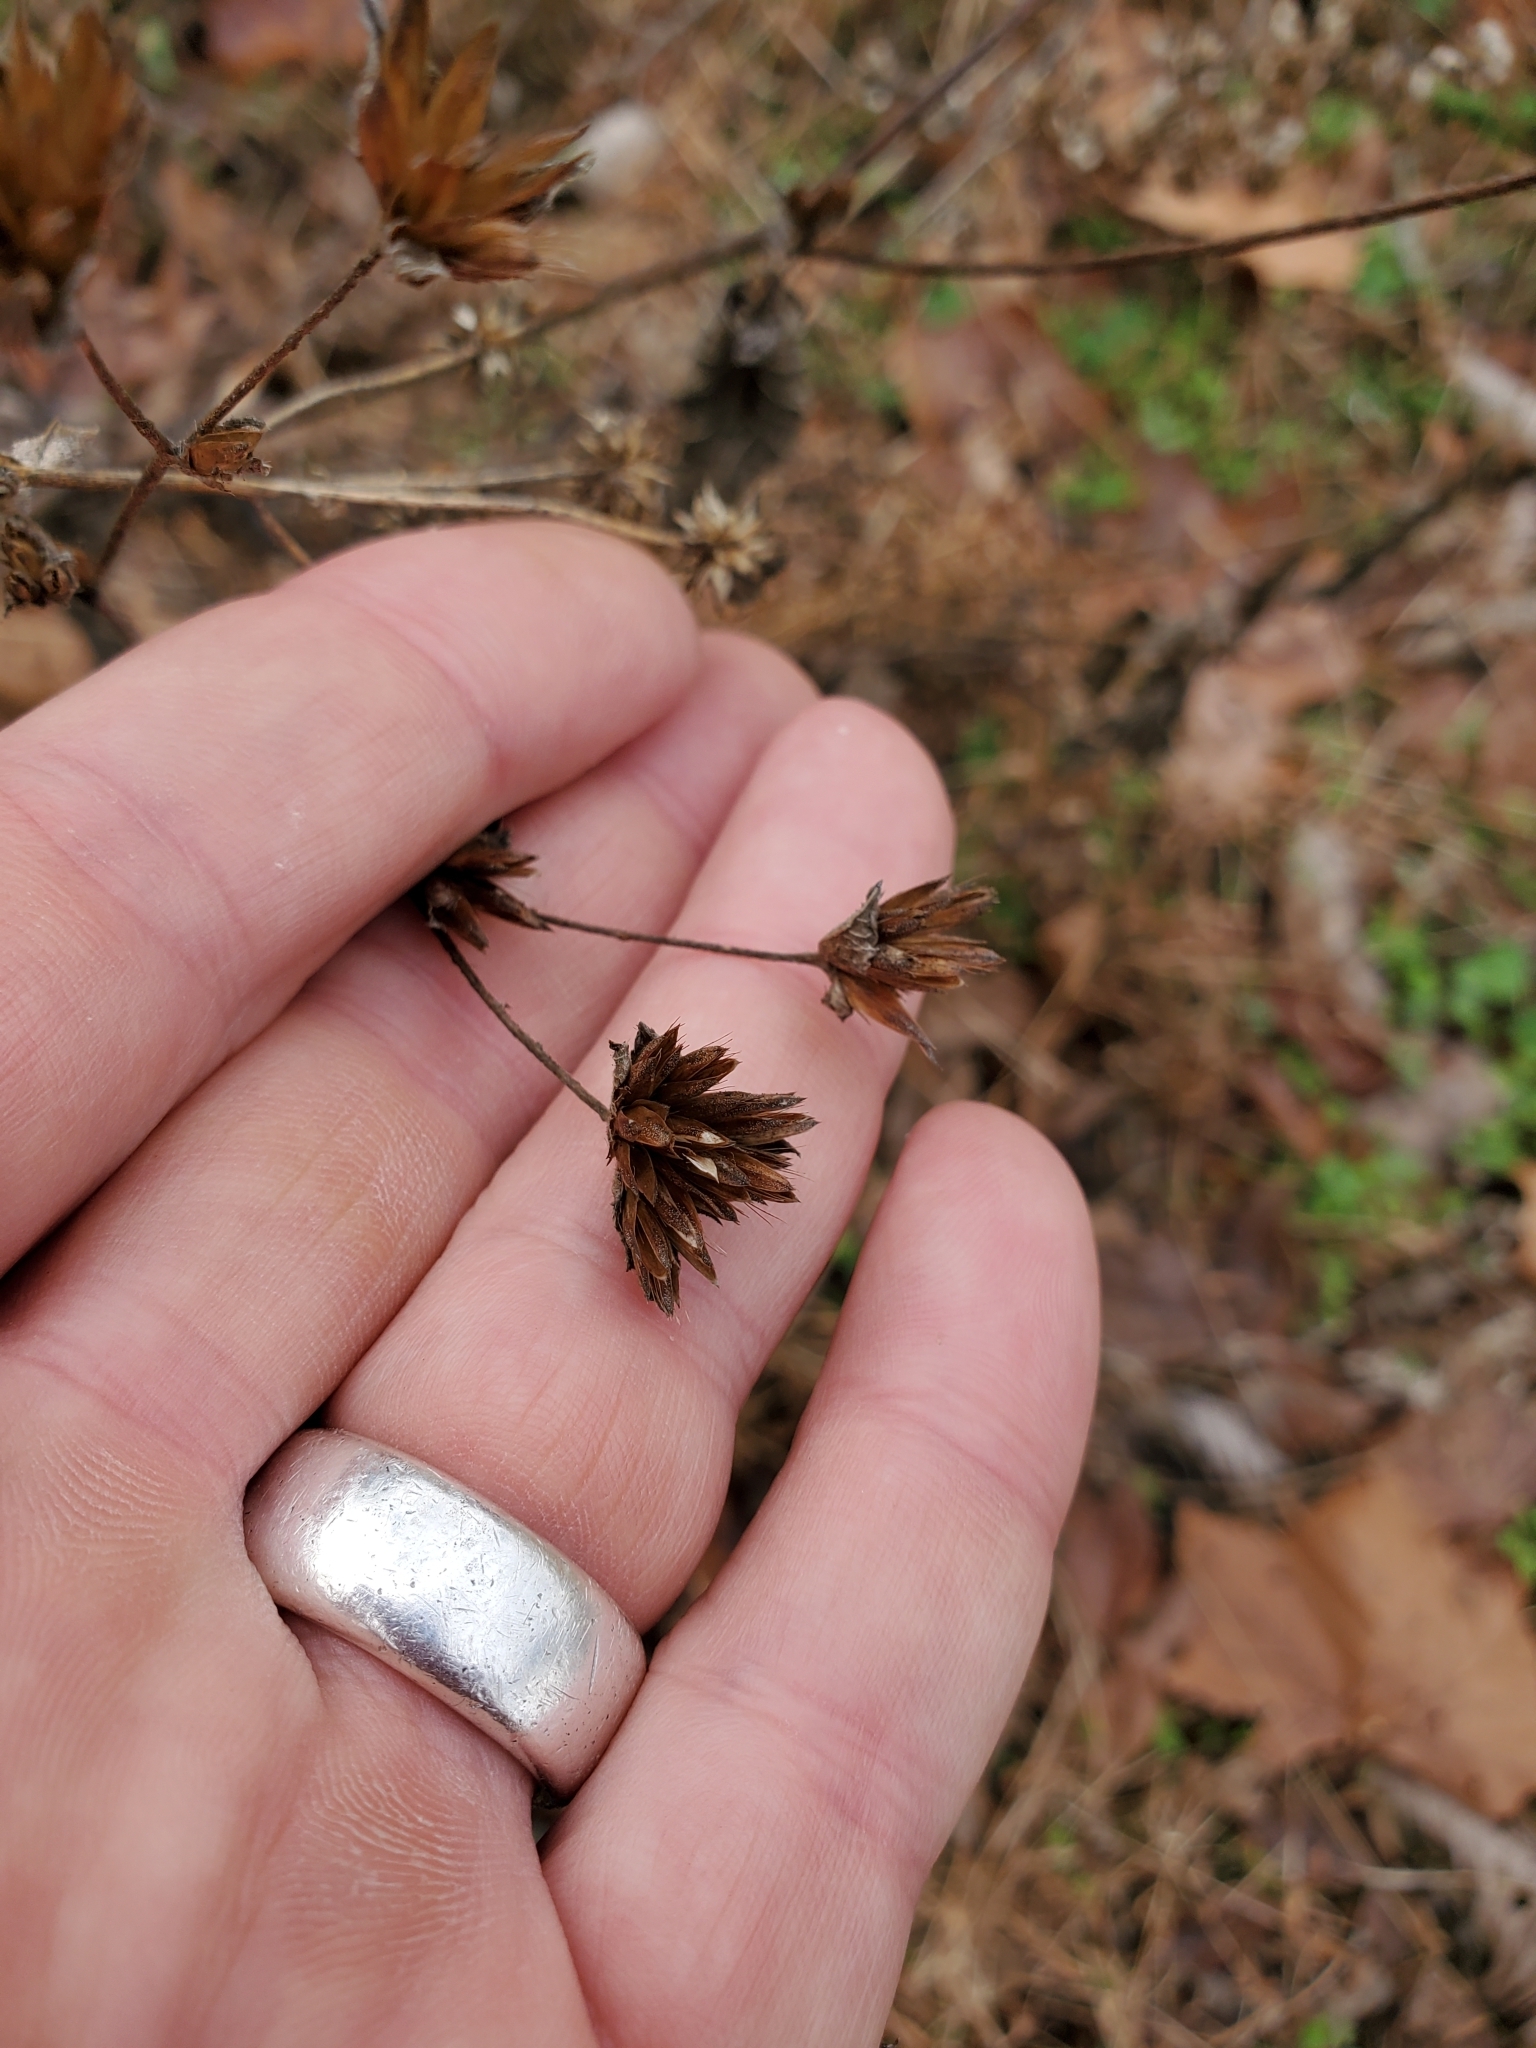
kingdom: Plantae
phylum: Tracheophyta
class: Magnoliopsida
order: Asterales
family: Asteraceae
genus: Elephantopus
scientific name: Elephantopus tomentosus
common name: Tobacco-weed
